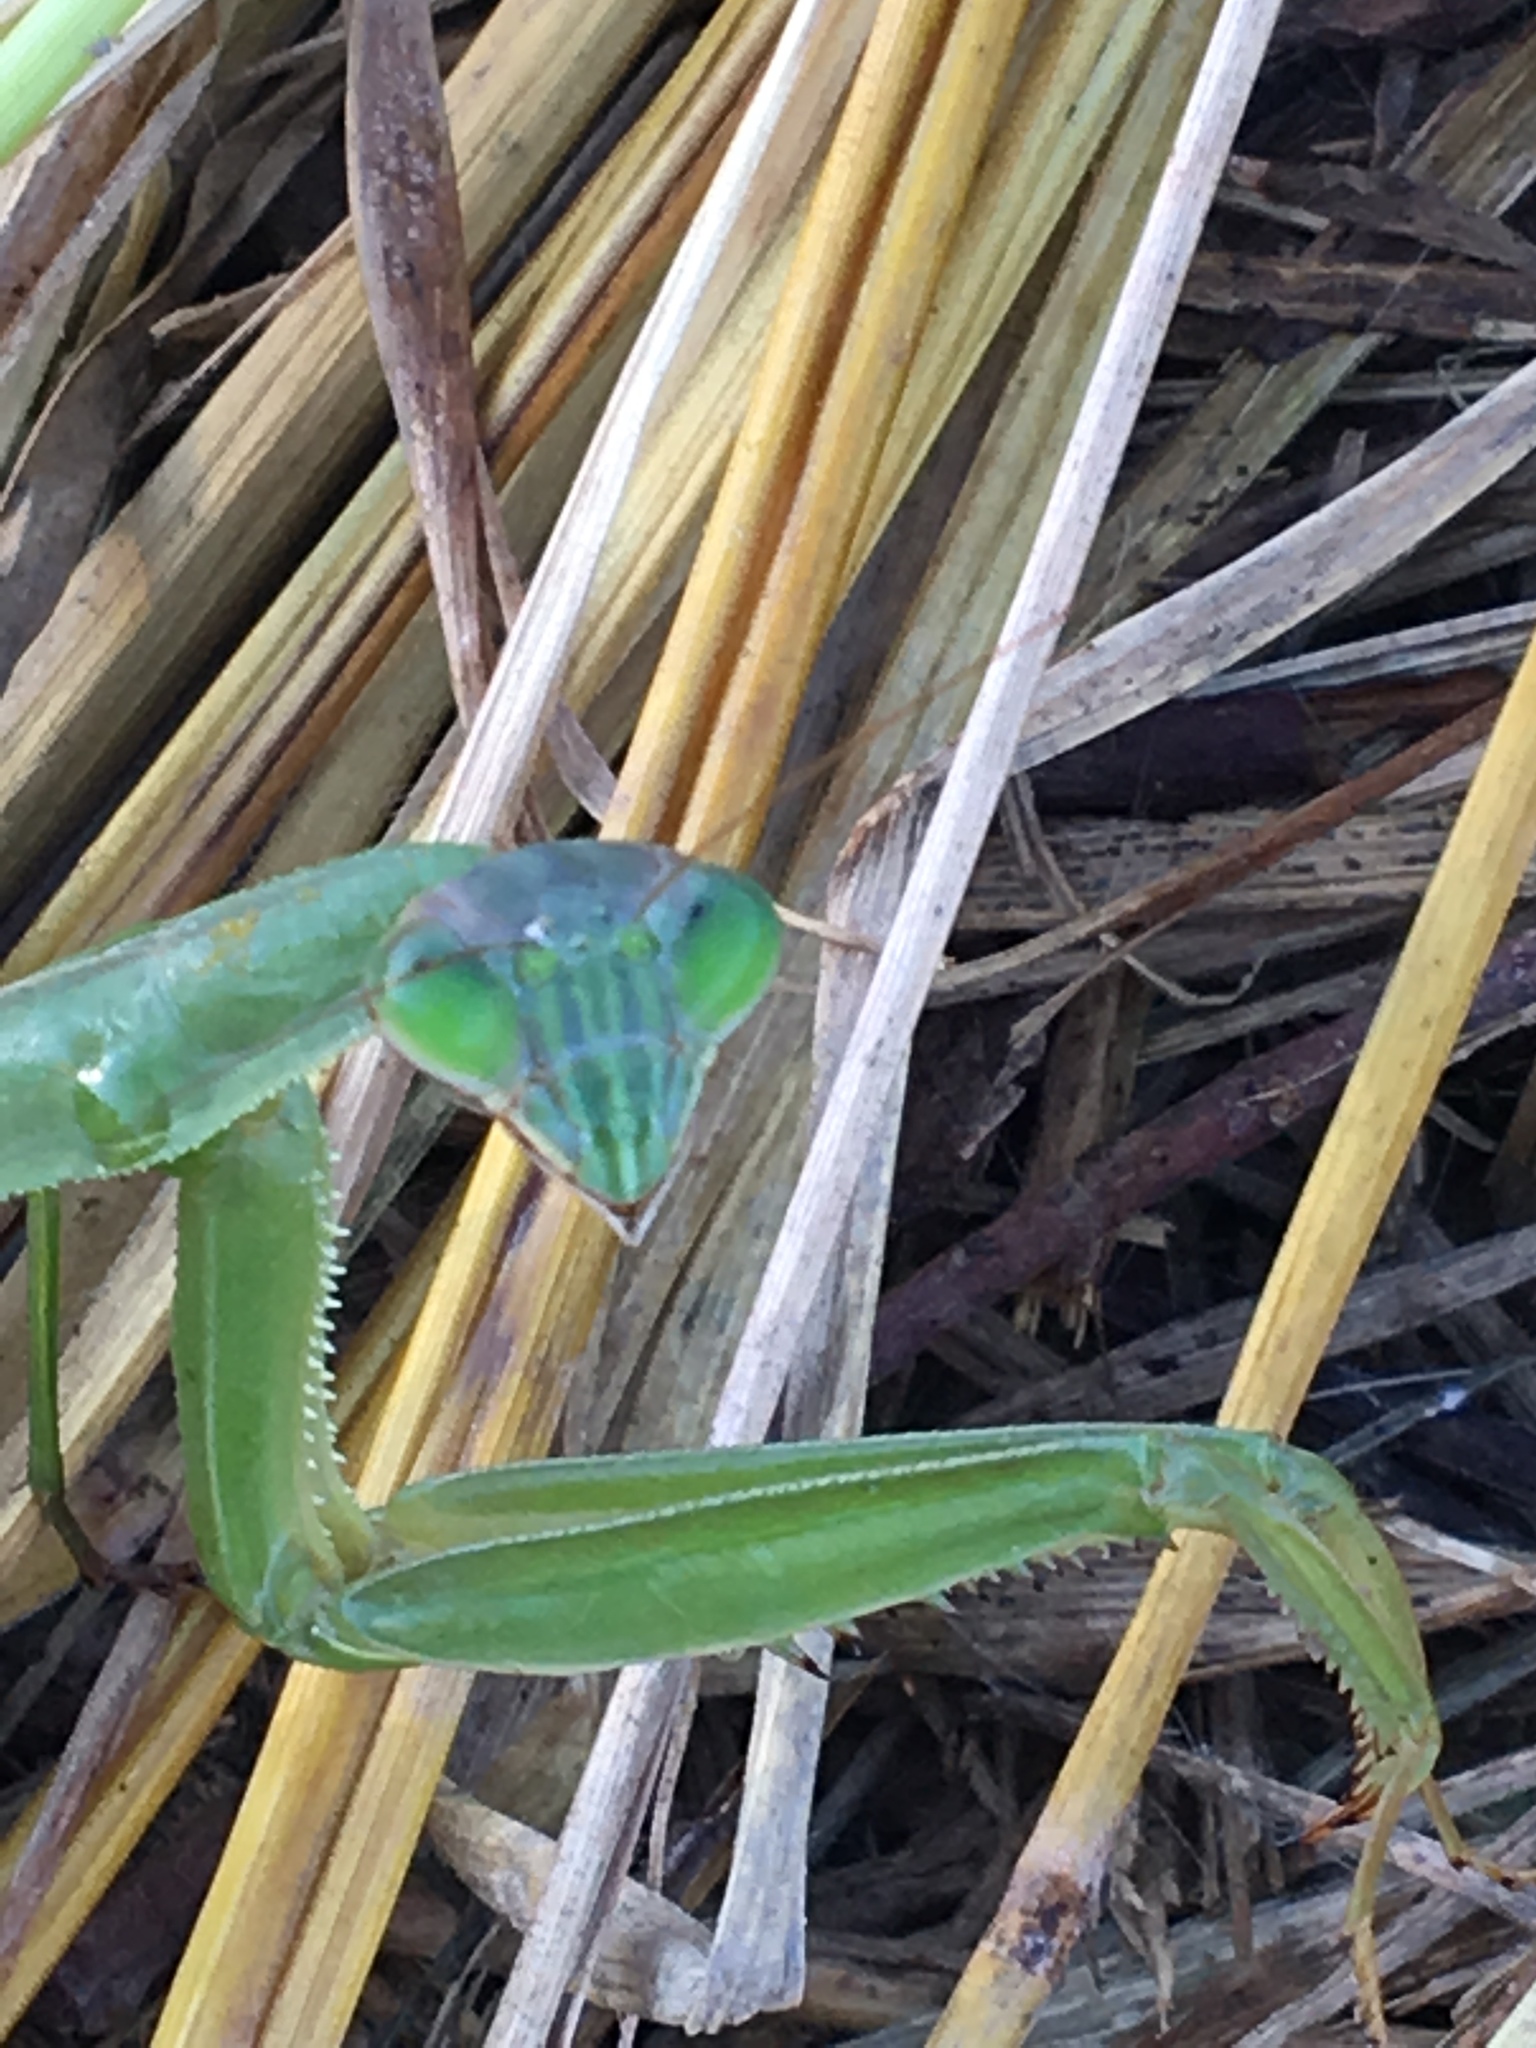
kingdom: Animalia
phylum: Arthropoda
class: Insecta
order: Mantodea
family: Mantidae
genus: Tenodera
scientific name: Tenodera sinensis
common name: Chinese mantis
